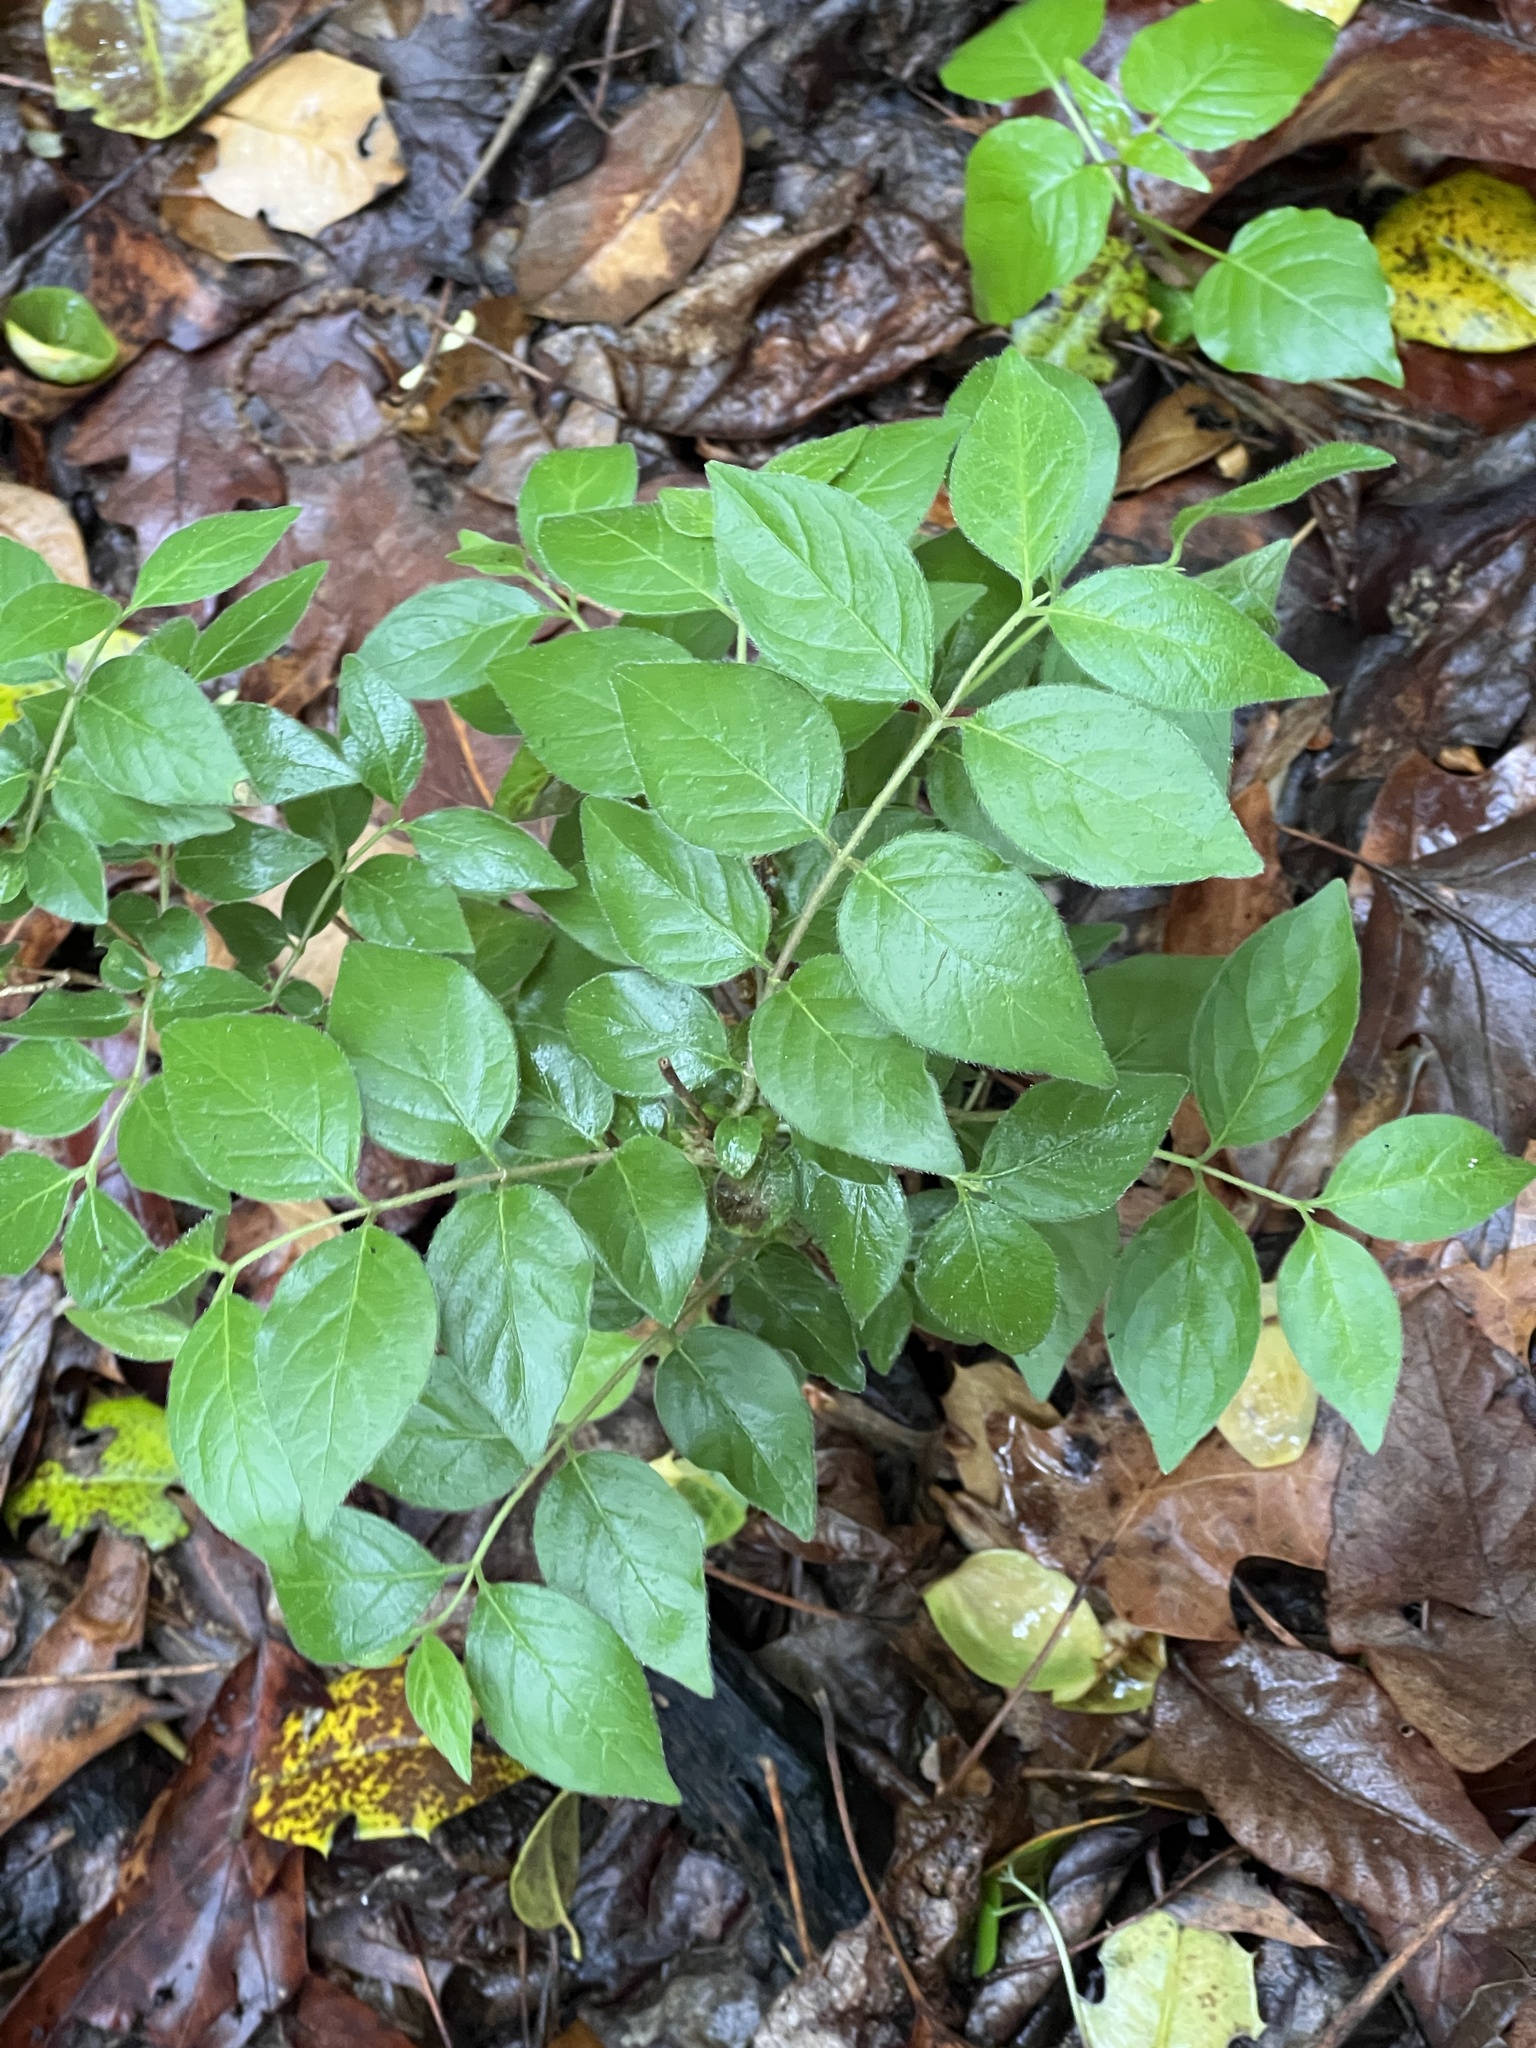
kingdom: Plantae
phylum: Tracheophyta
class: Magnoliopsida
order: Dipsacales
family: Caprifoliaceae
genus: Lonicera
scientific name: Lonicera maackii
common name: Amur honeysuckle
